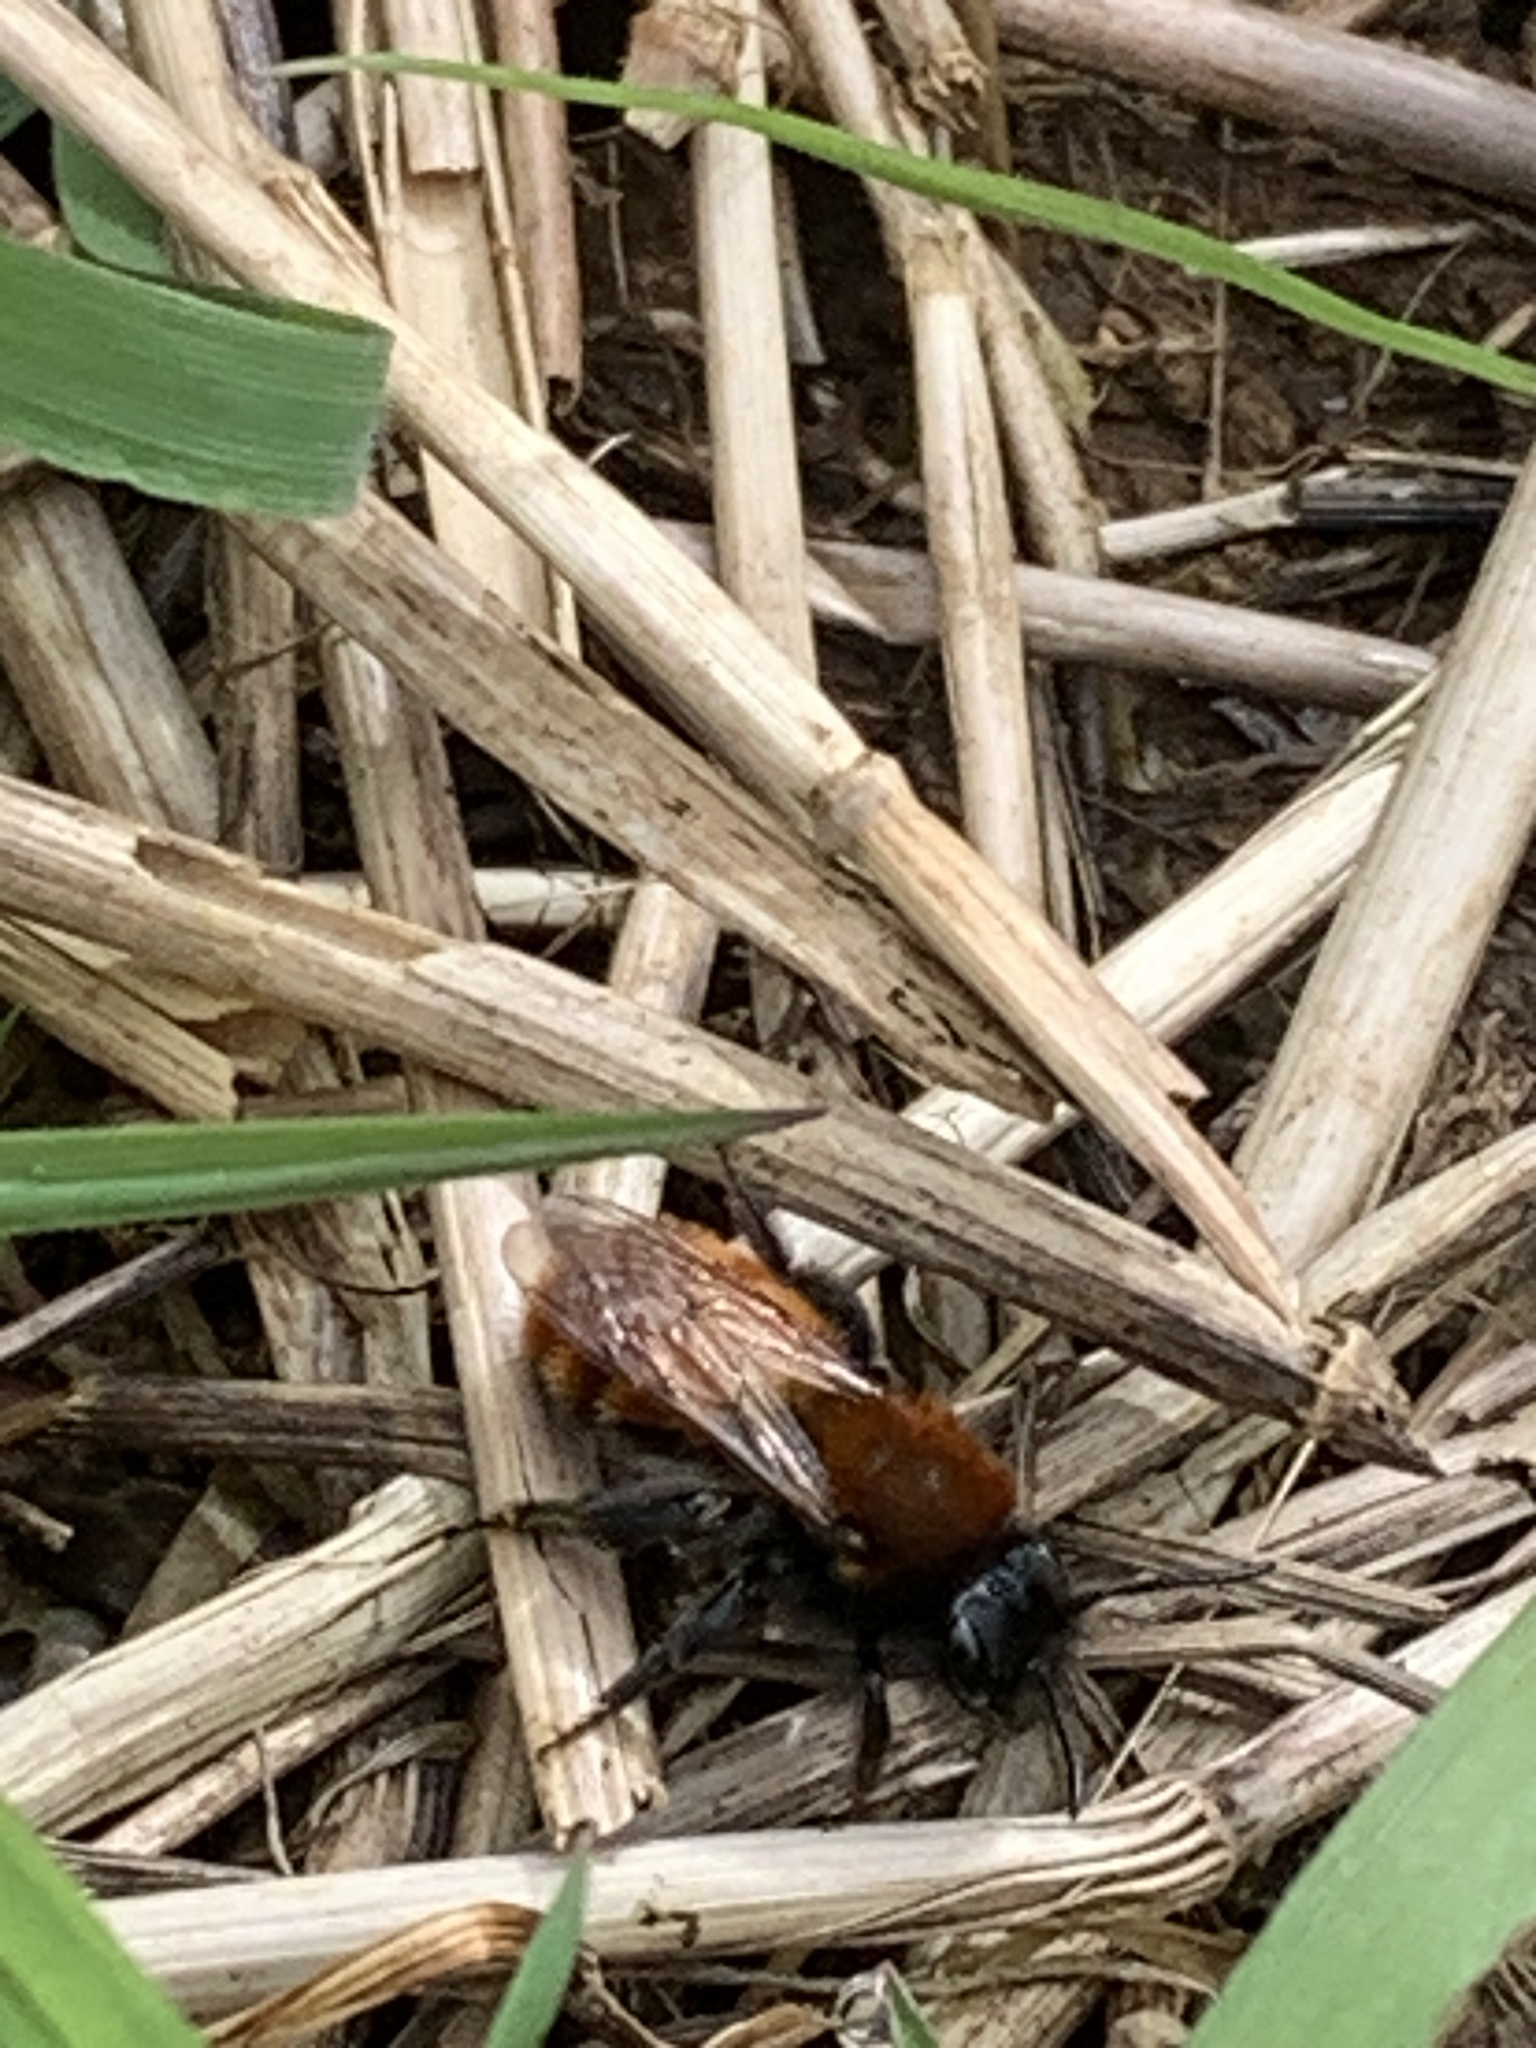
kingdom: Animalia
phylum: Arthropoda
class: Insecta
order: Hymenoptera
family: Andrenidae
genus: Andrena
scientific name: Andrena fulva
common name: Tawny mining bee
